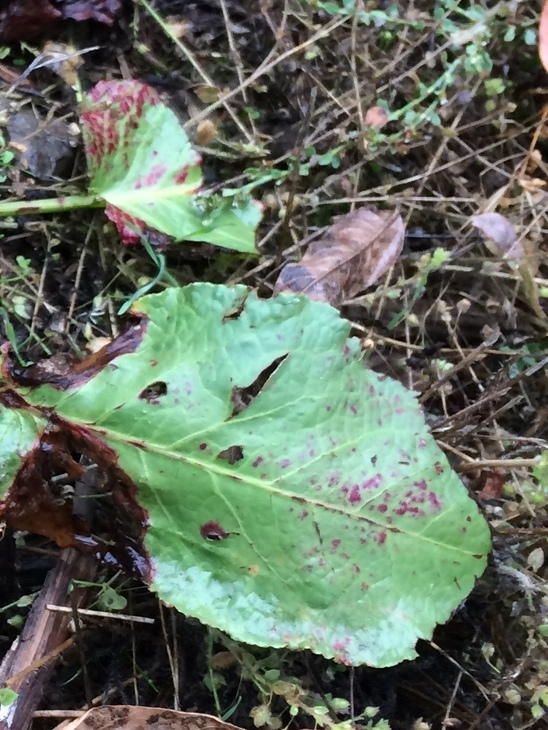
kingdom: Fungi
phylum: Ascomycota
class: Dothideomycetes
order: Mycosphaerellales
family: Mycosphaerellaceae
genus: Ramularia
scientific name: Ramularia rubella
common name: Red dock spot
